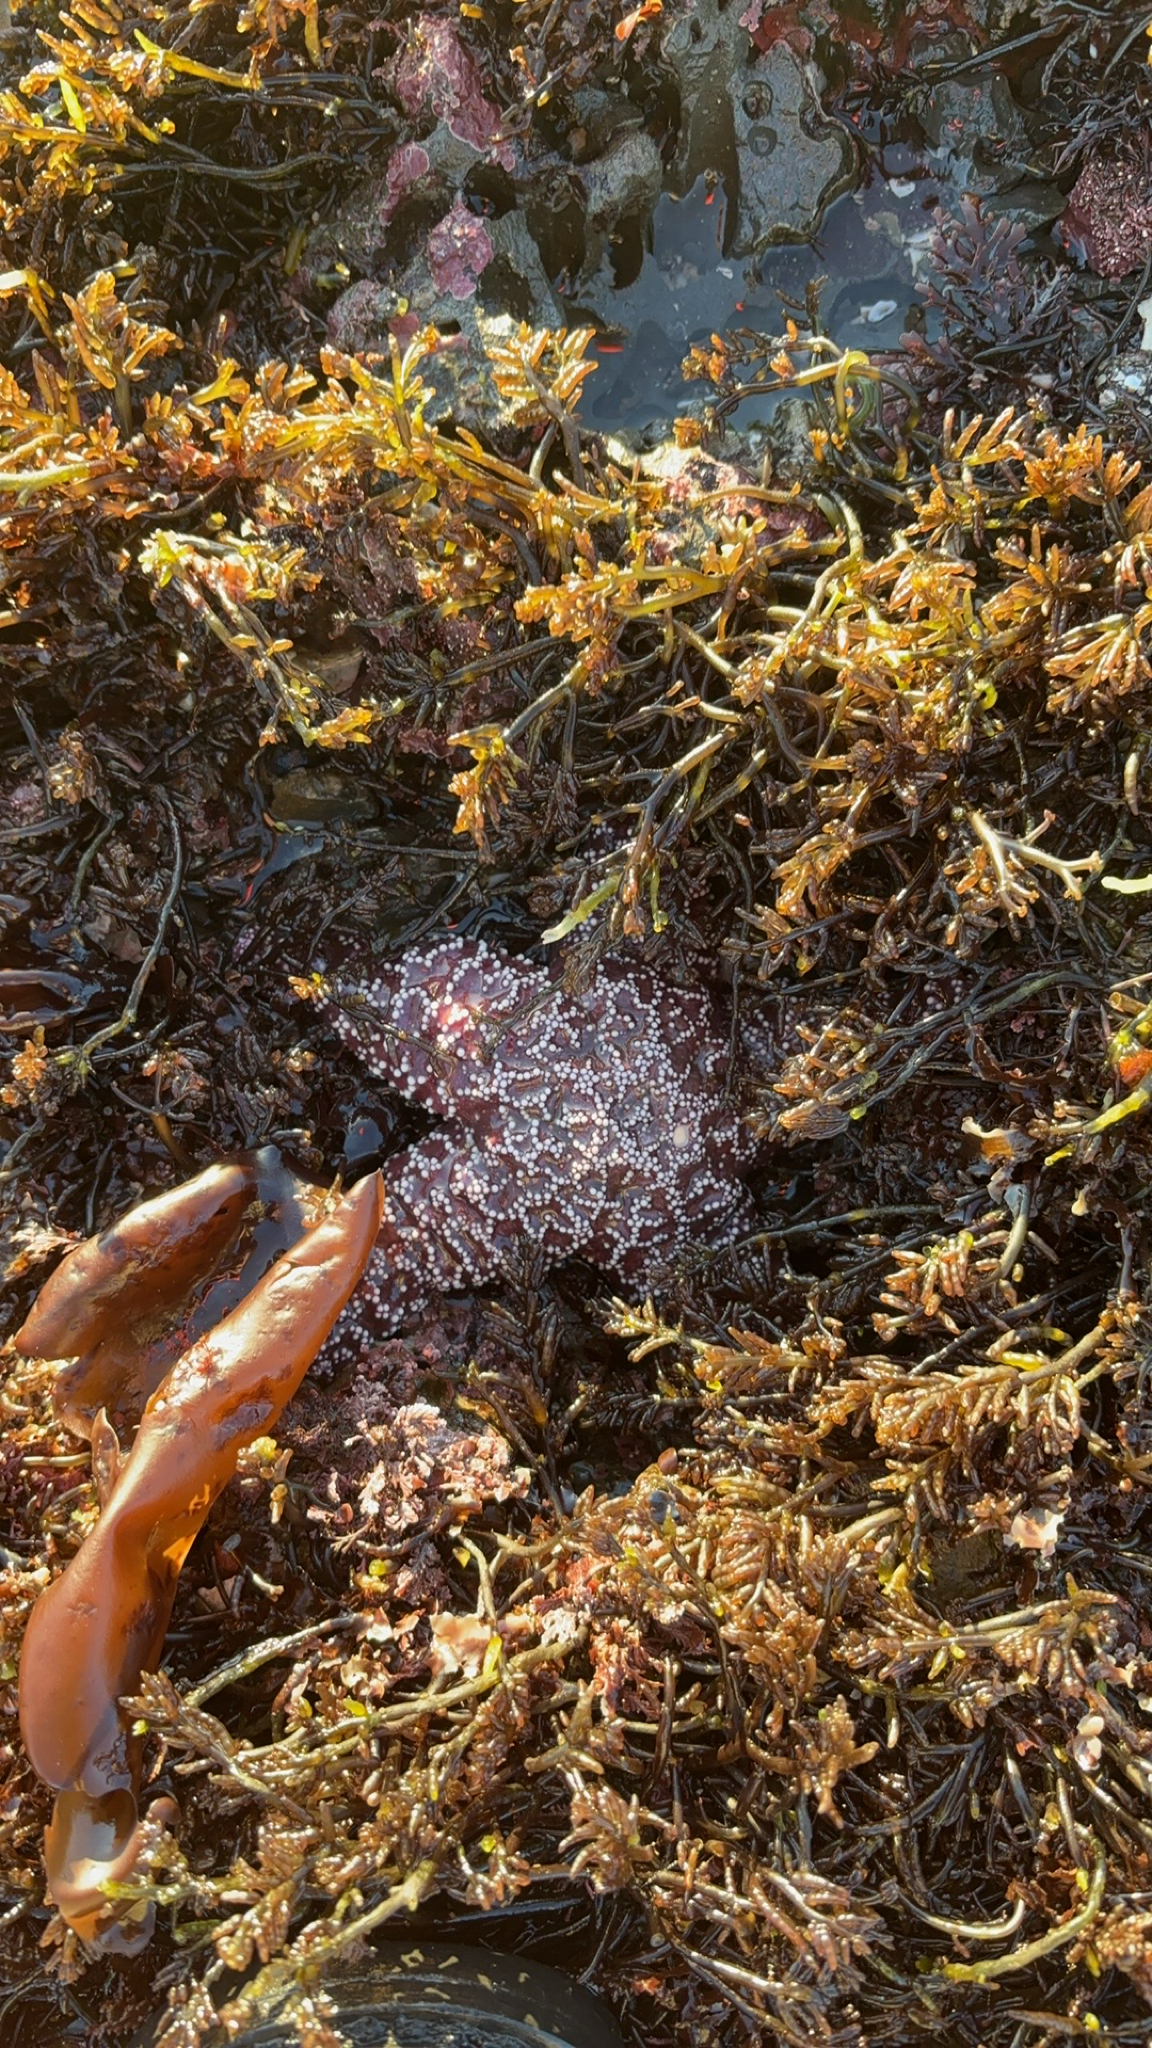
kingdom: Animalia
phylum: Echinodermata
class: Asteroidea
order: Forcipulatida
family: Asteriidae
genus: Pisaster
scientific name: Pisaster ochraceus
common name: Ochre stars
